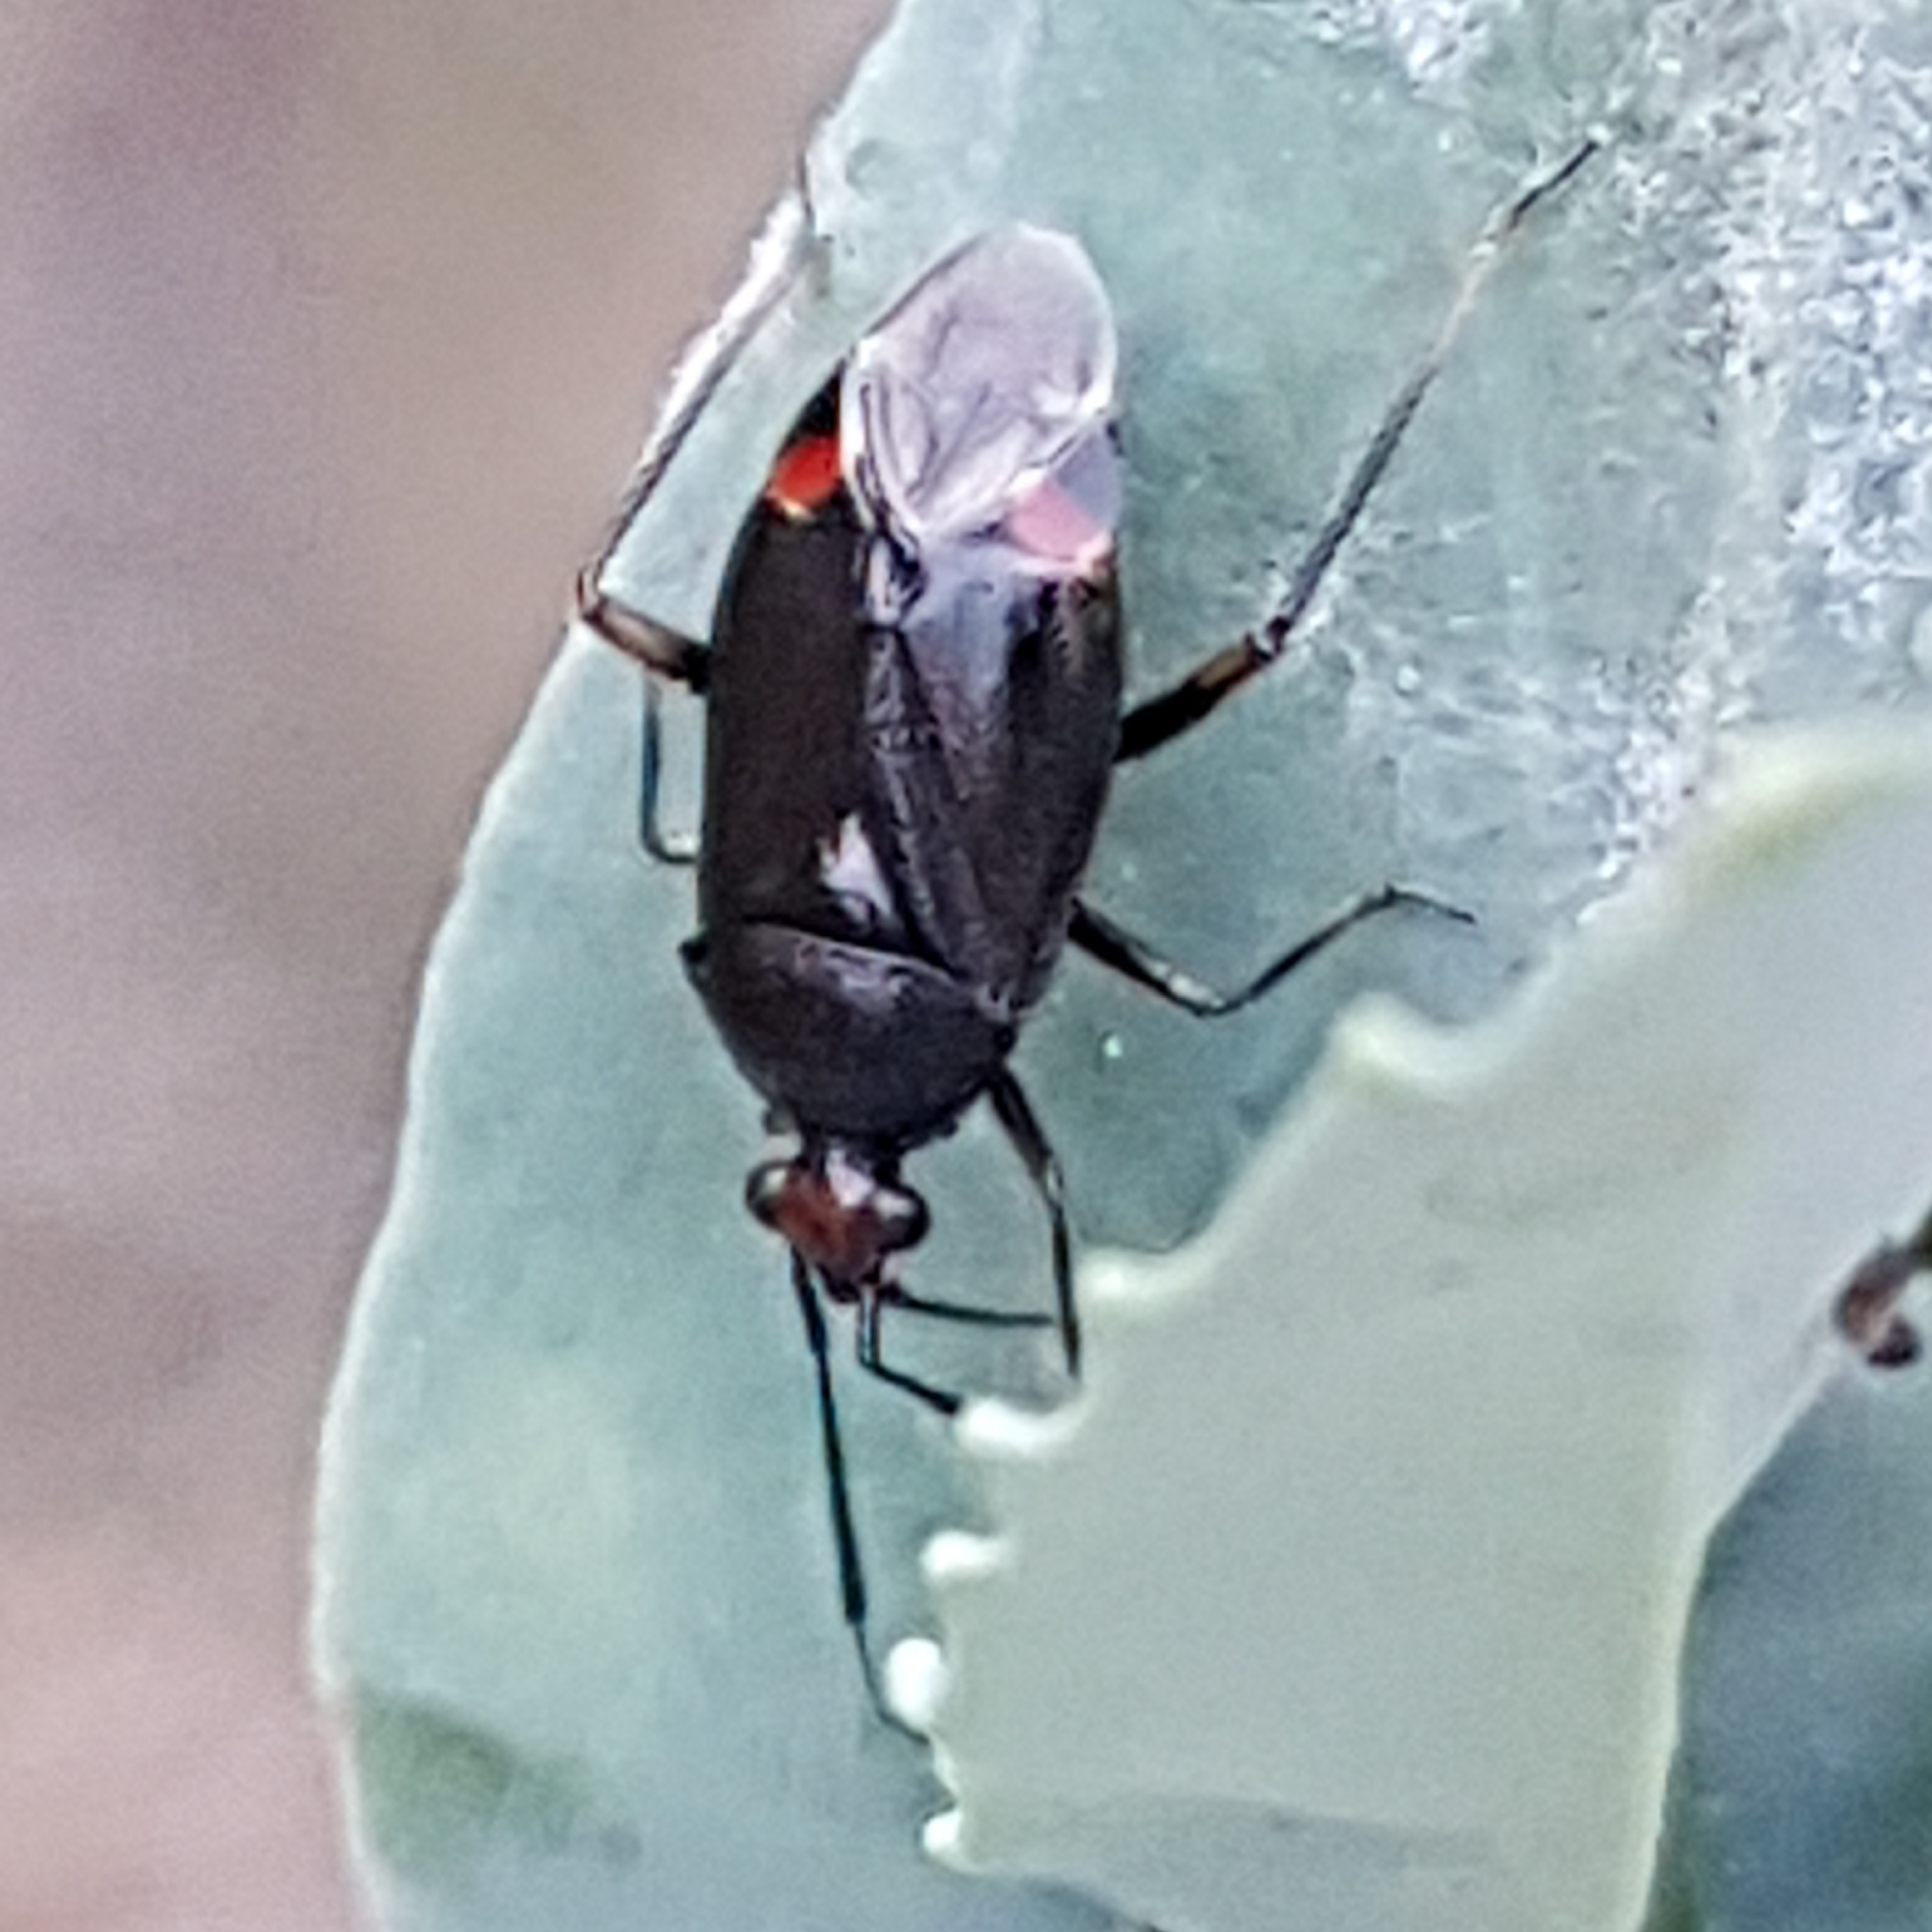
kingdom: Animalia
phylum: Arthropoda
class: Insecta
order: Hemiptera
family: Miridae
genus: Deraeocoris
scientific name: Deraeocoris ruber
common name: Plant bug
